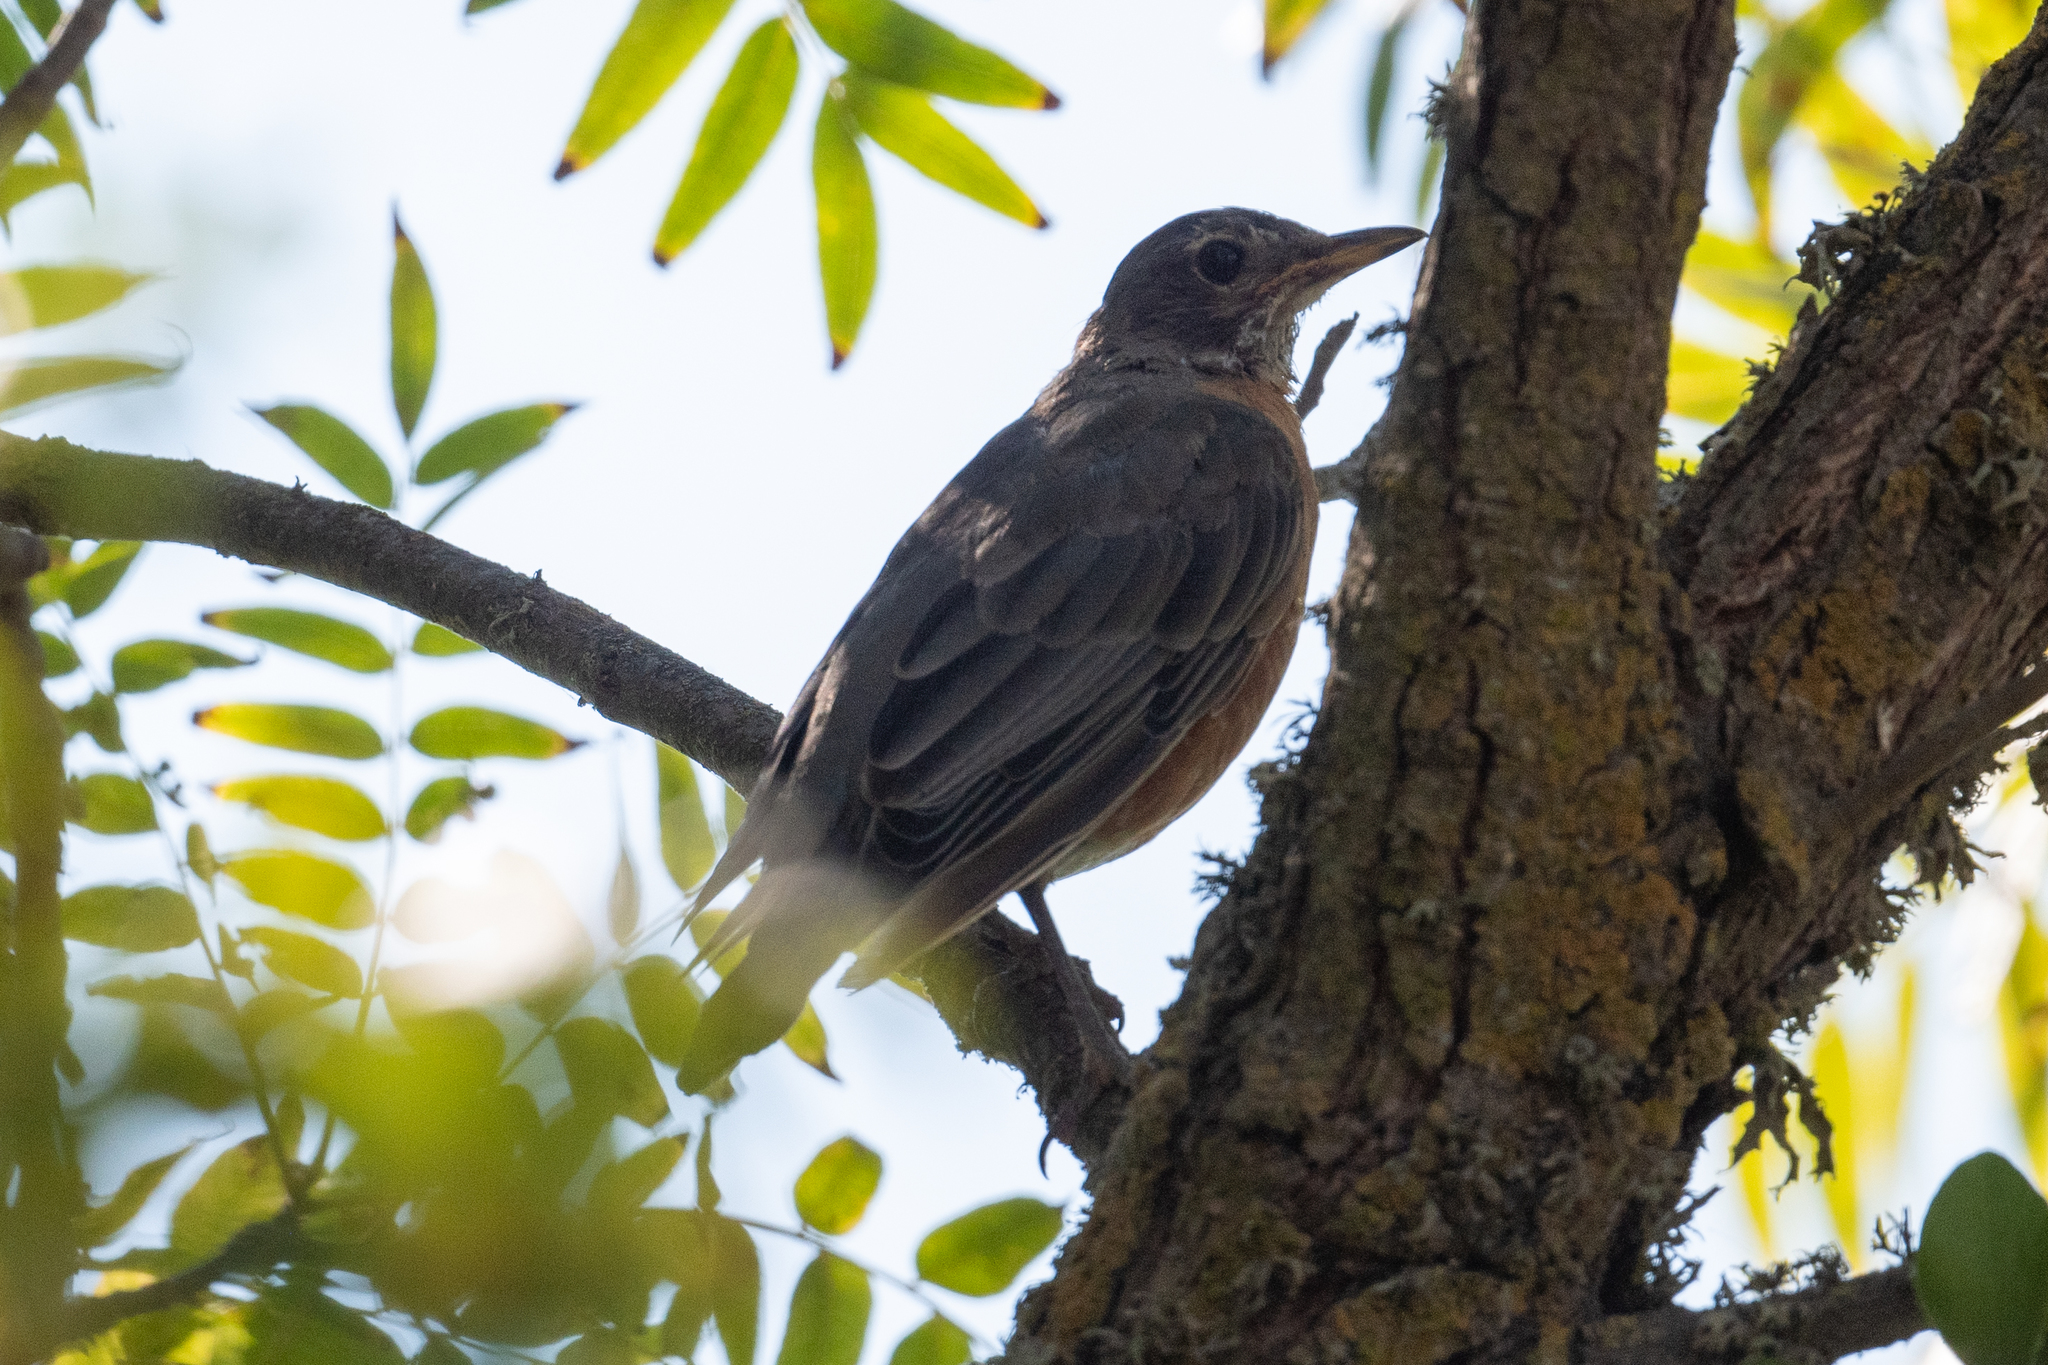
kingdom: Animalia
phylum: Chordata
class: Aves
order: Passeriformes
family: Turdidae
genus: Turdus
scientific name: Turdus migratorius
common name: American robin
